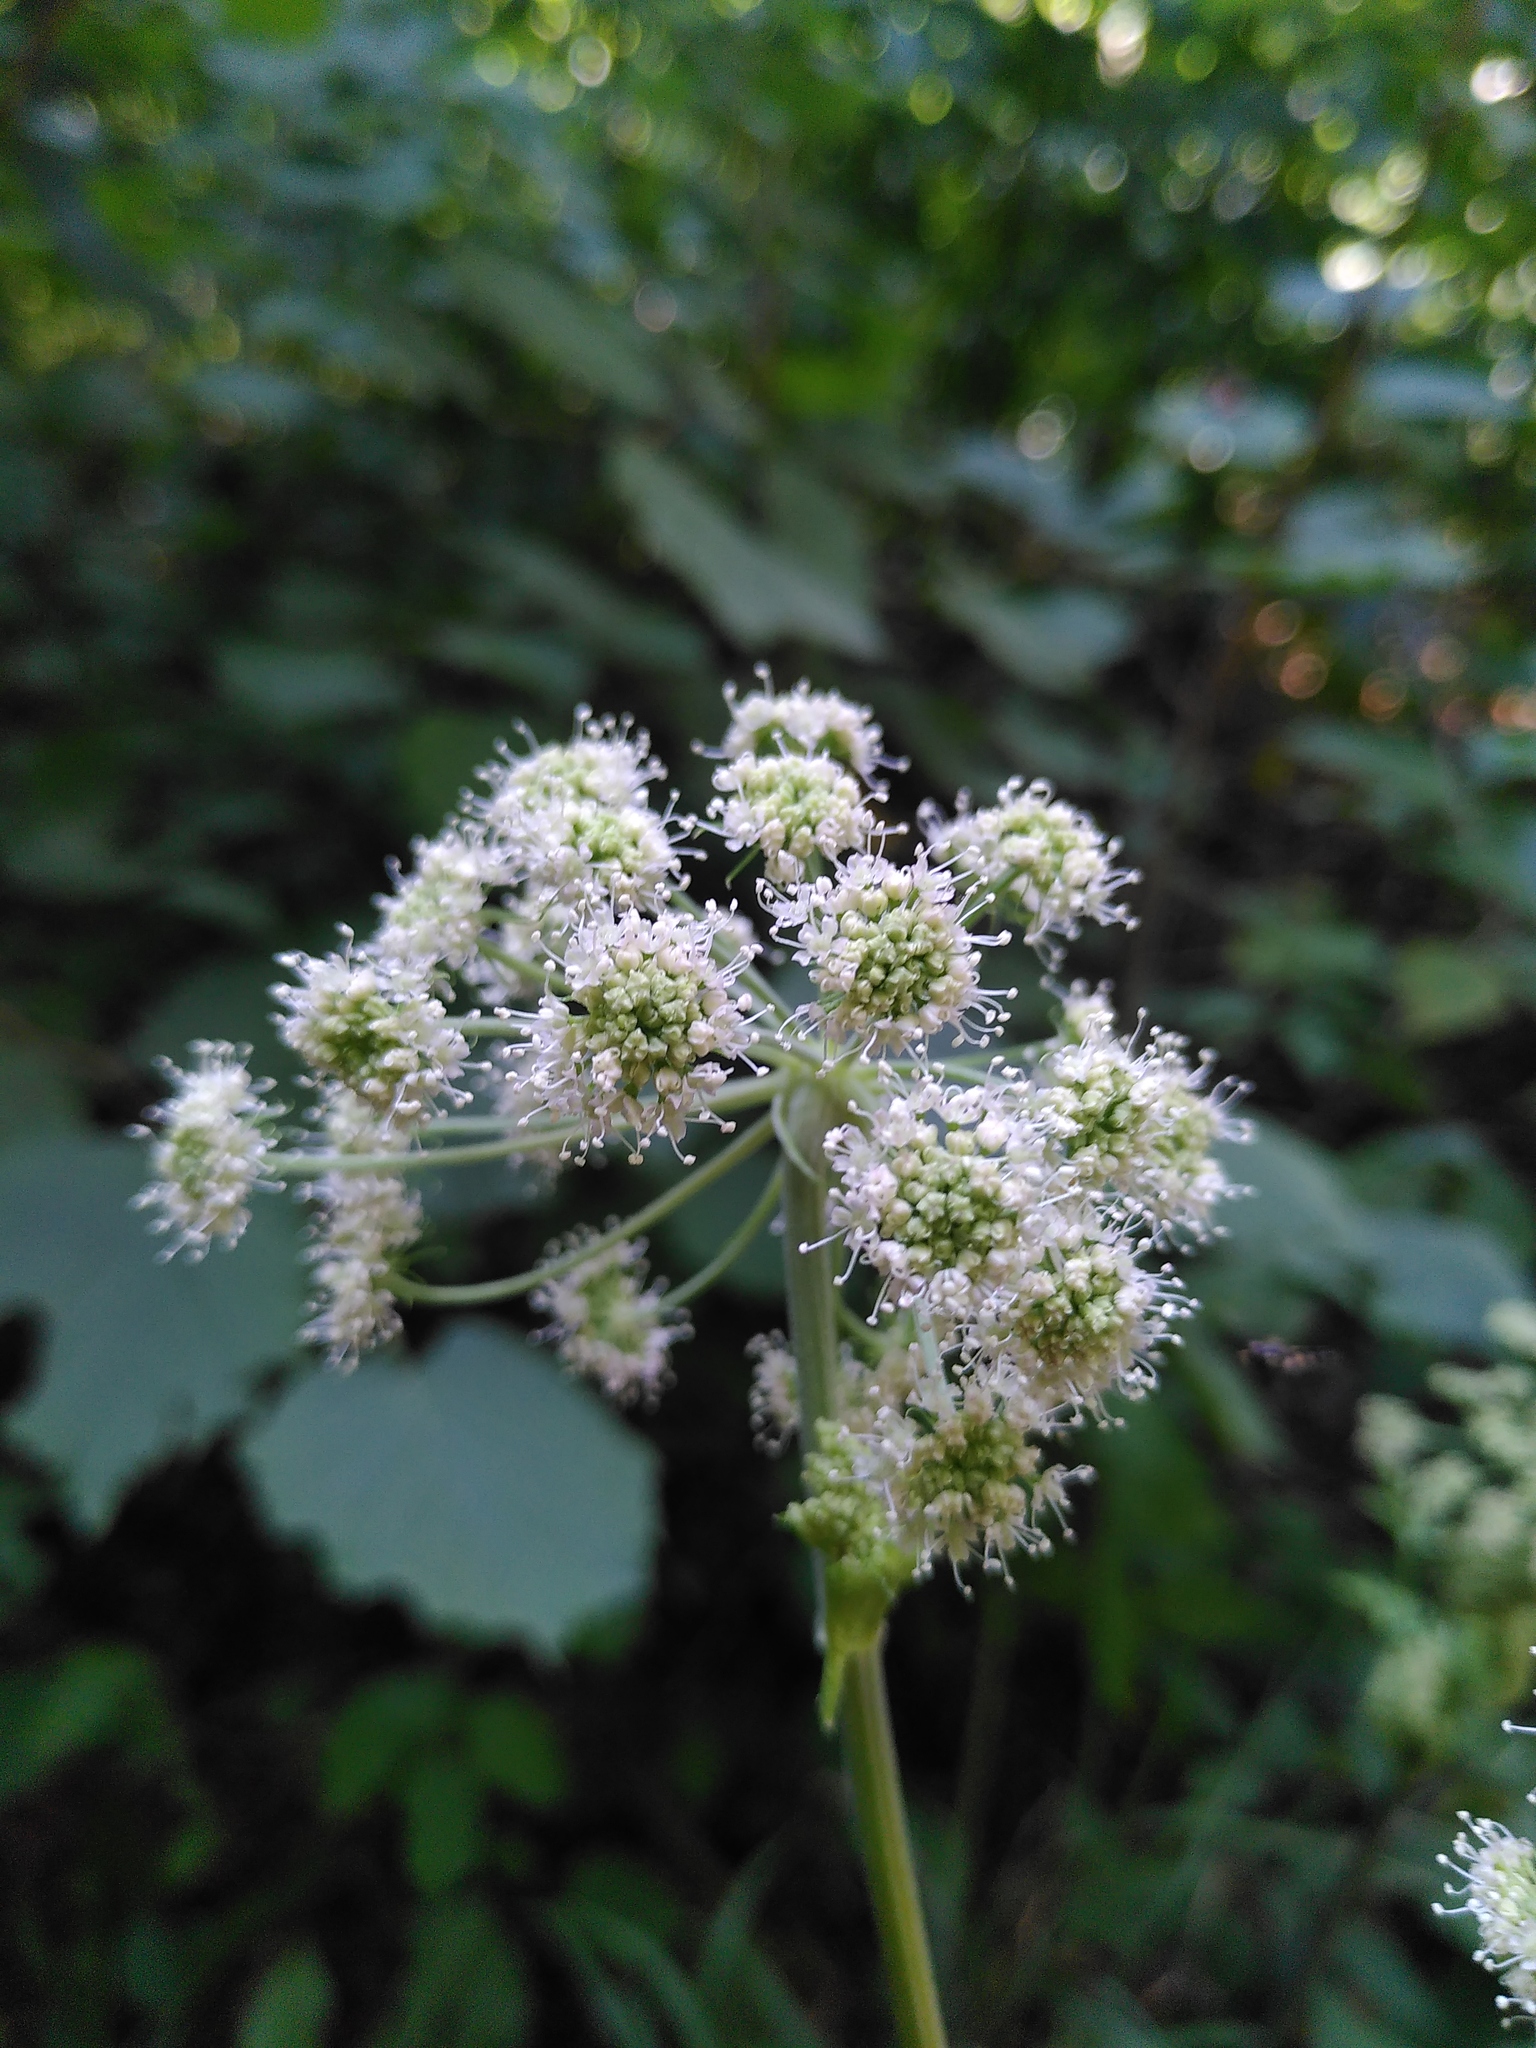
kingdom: Plantae
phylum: Tracheophyta
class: Magnoliopsida
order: Apiales
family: Apiaceae
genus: Angelica
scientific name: Angelica sylvestris
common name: Wild angelica
